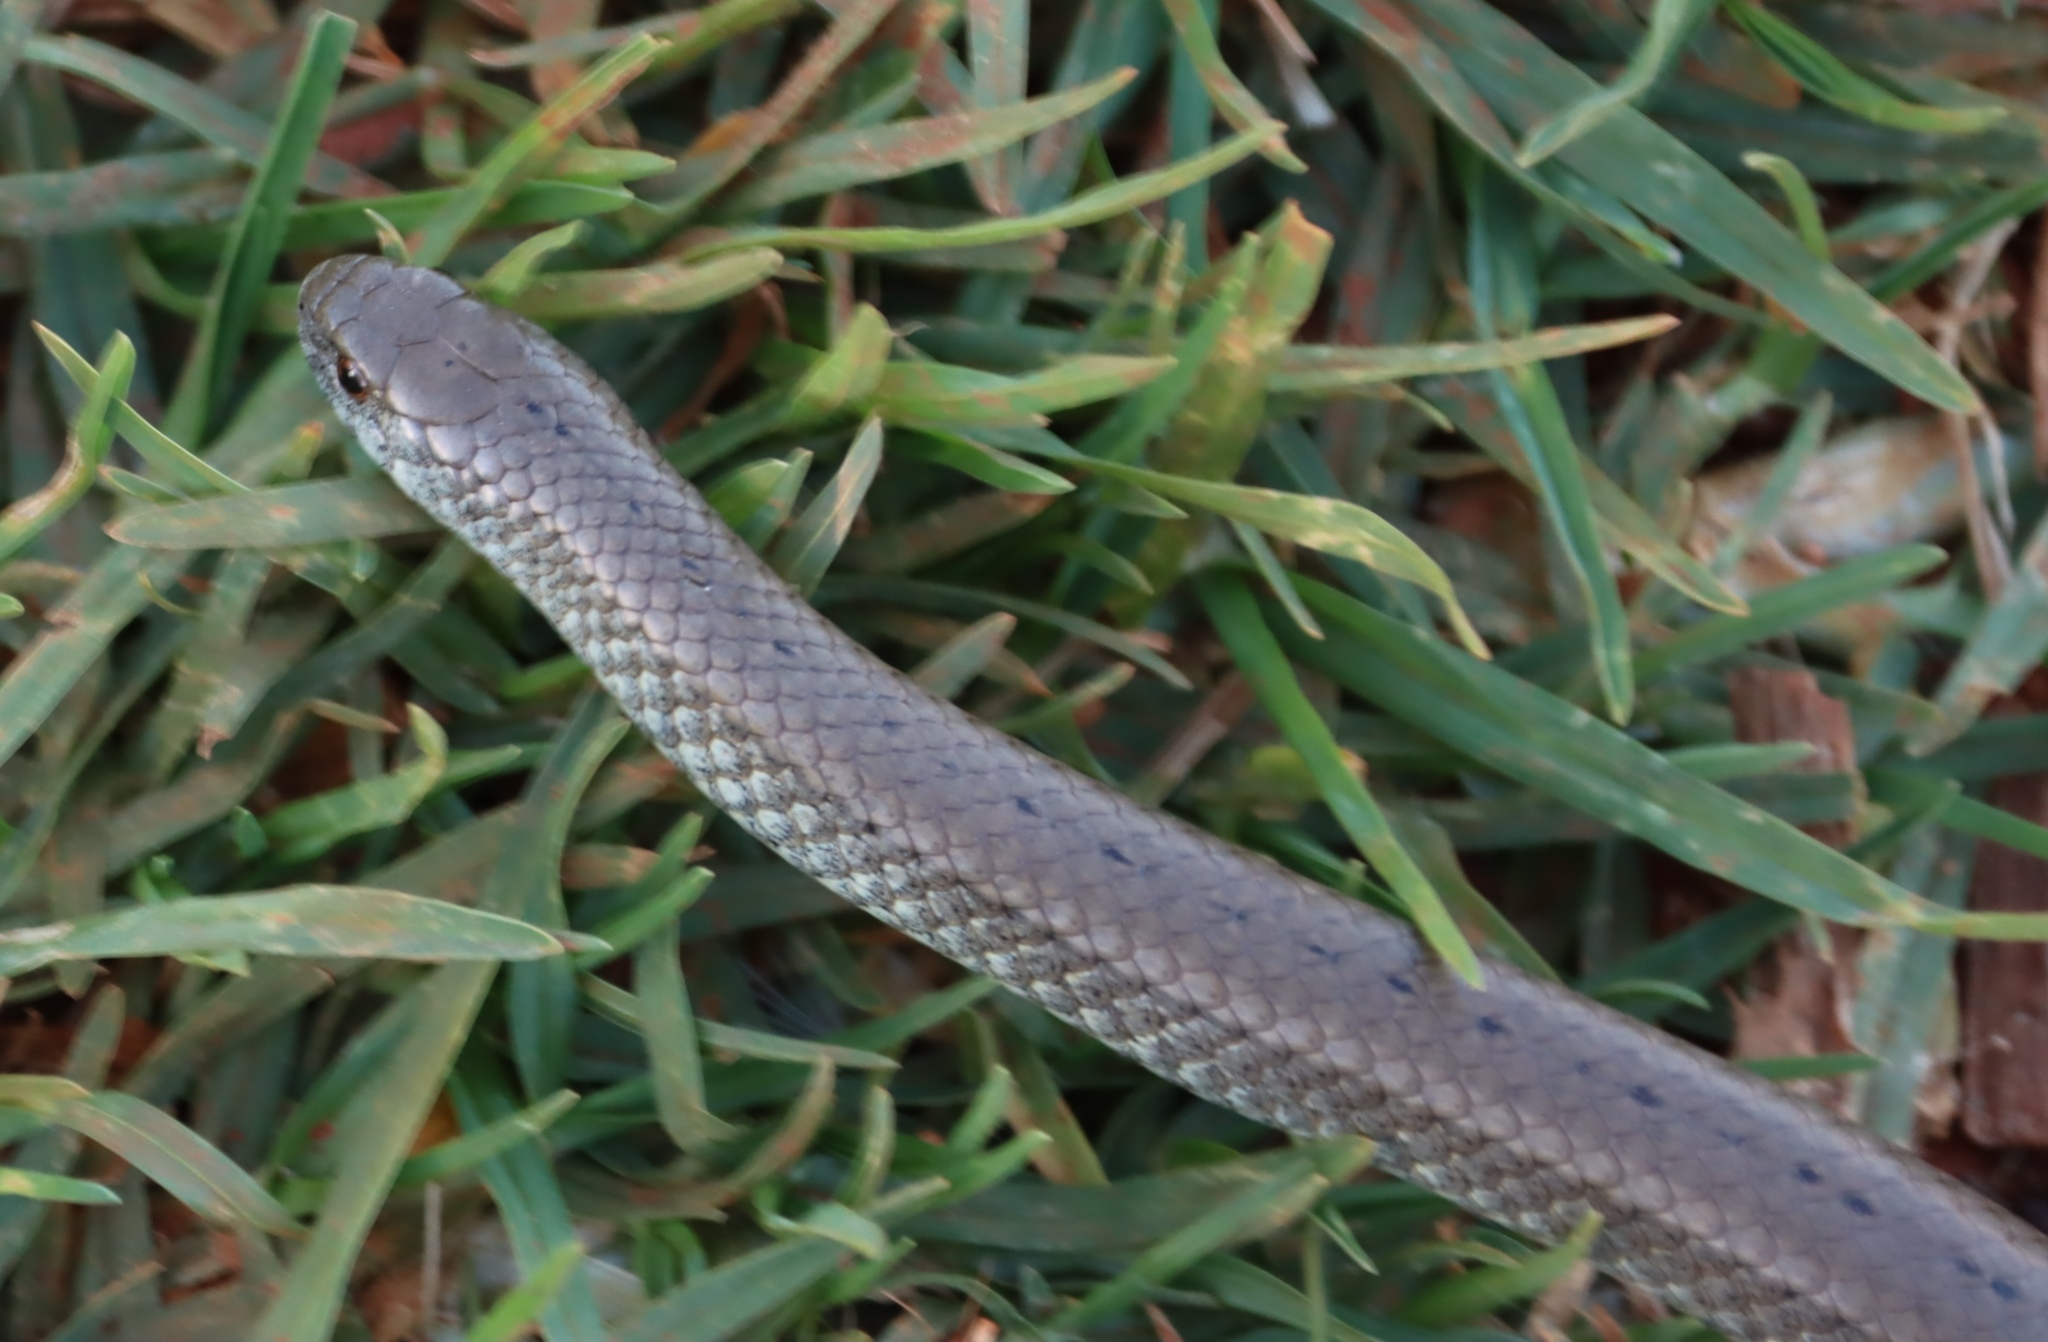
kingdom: Animalia
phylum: Chordata
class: Squamata
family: Pseudoxyrhophiidae
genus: Duberria
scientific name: Duberria lutrix
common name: Common slug eater
